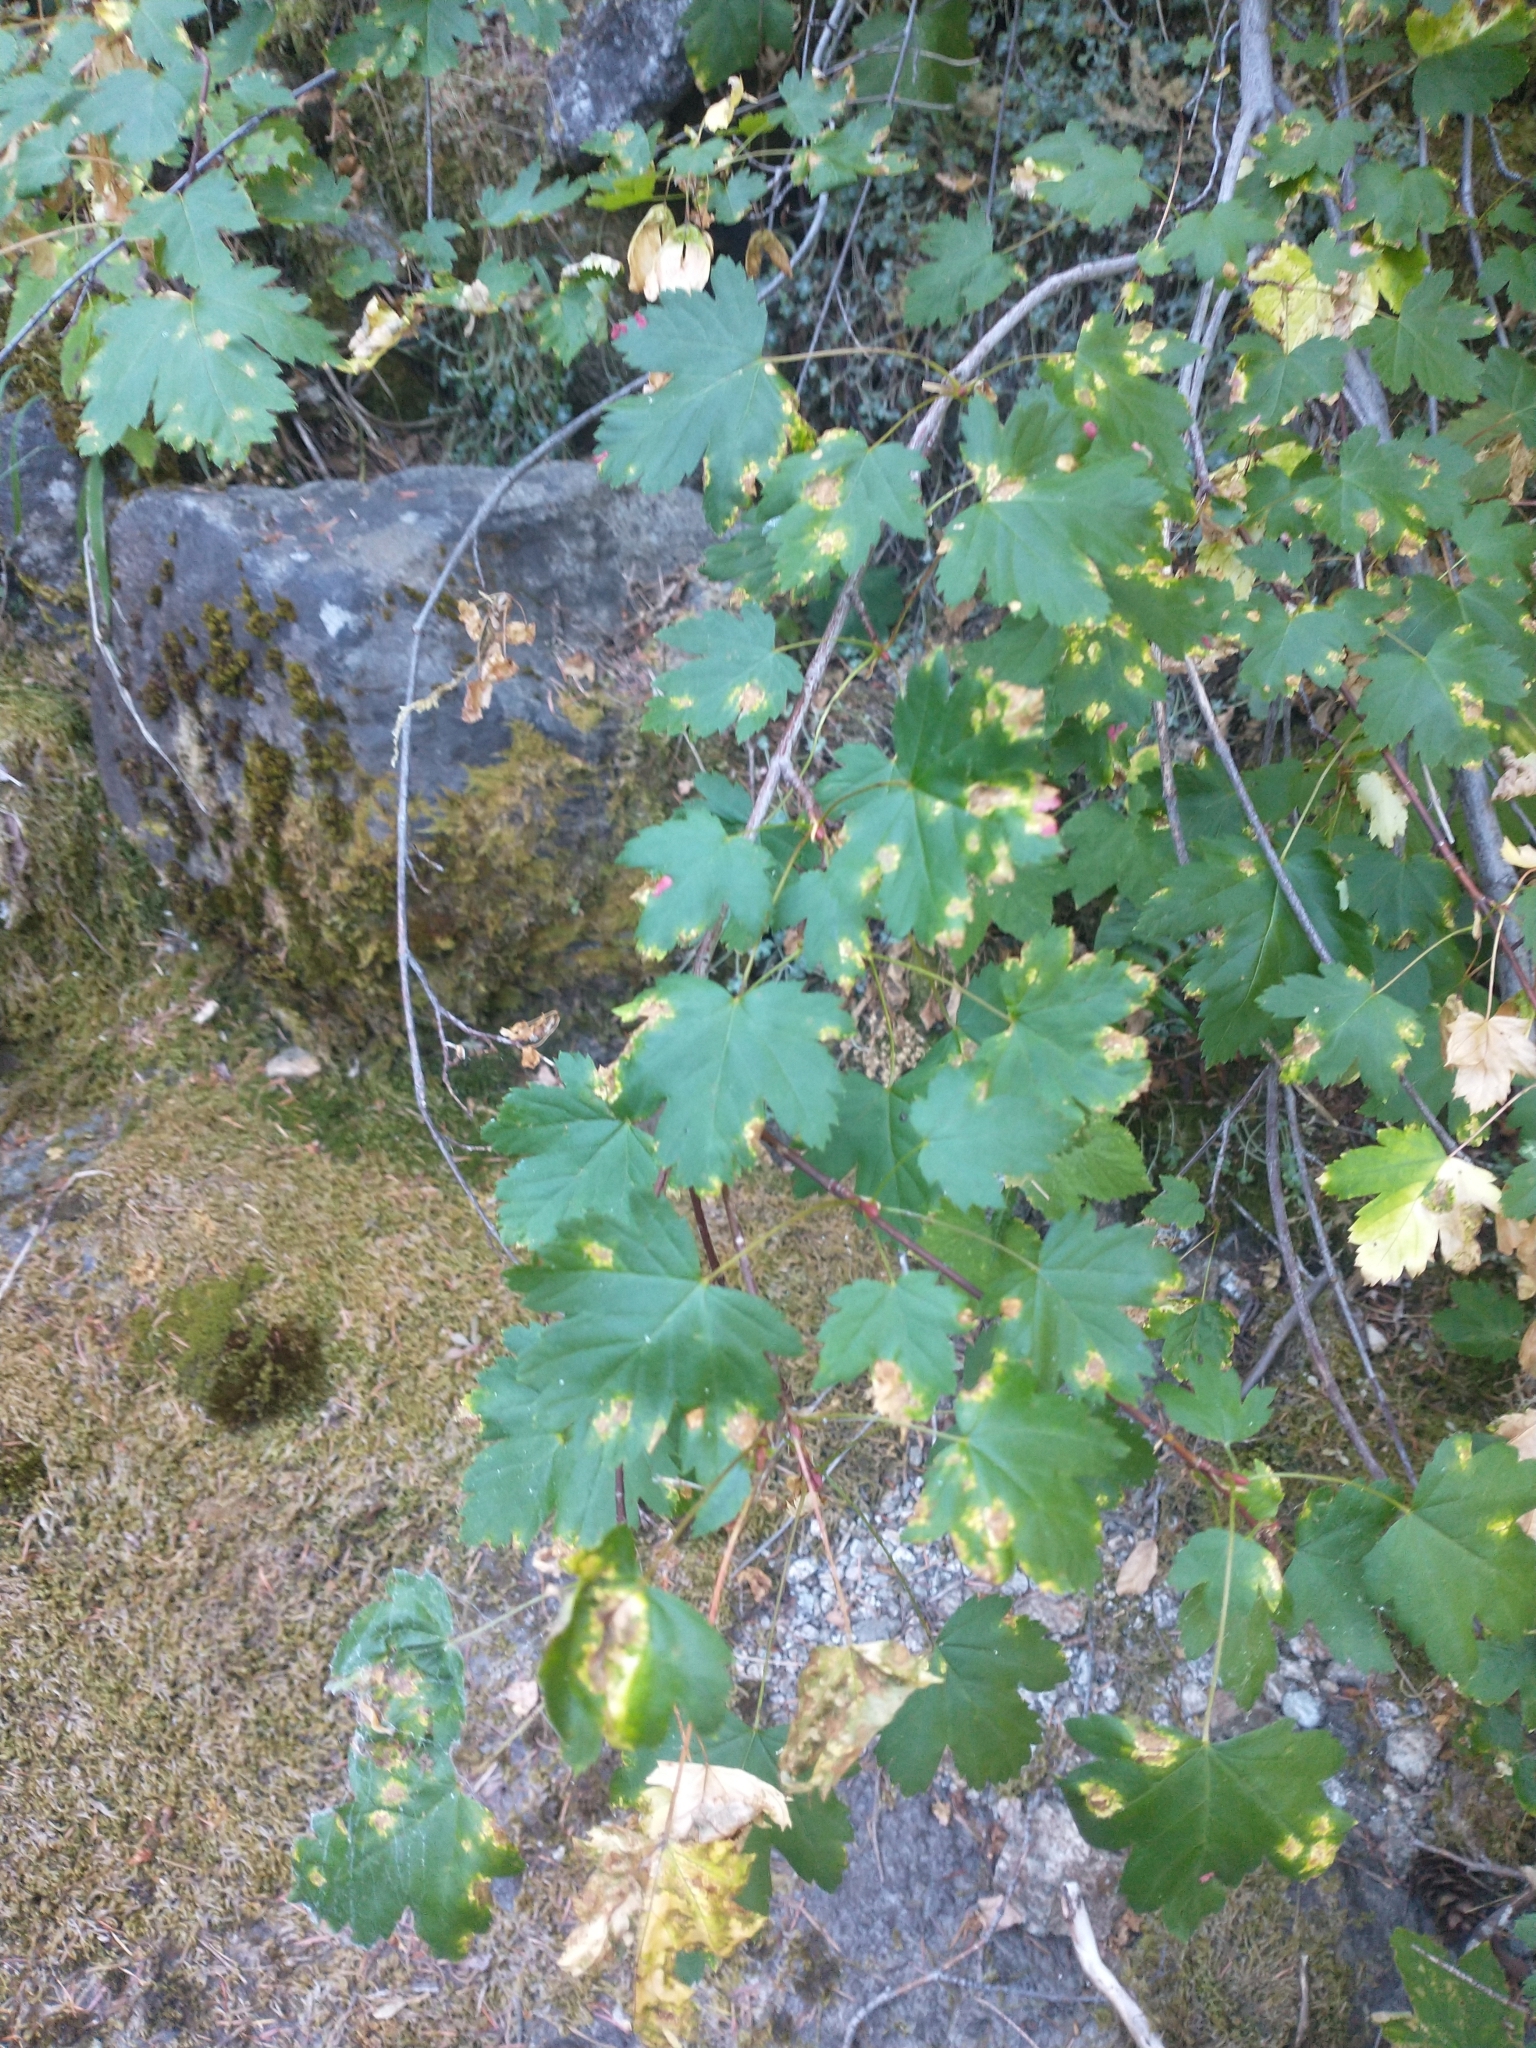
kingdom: Plantae
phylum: Tracheophyta
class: Magnoliopsida
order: Sapindales
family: Sapindaceae
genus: Acer
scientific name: Acer glabrum
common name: Rocky mountain maple
